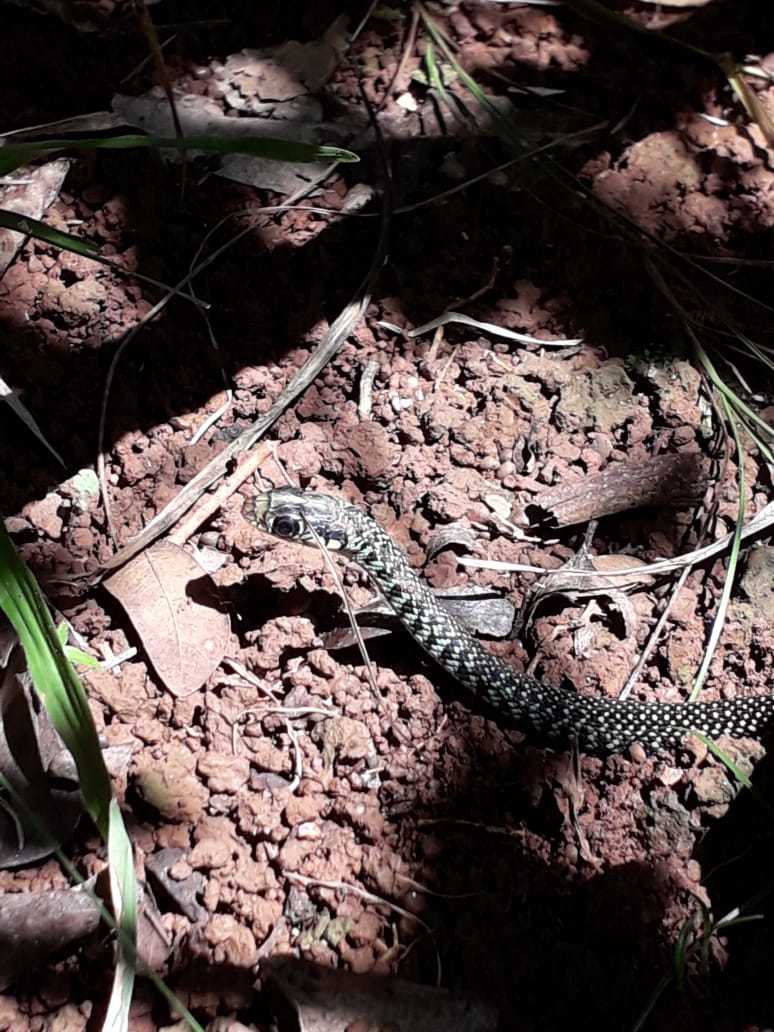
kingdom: Animalia
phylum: Chordata
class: Squamata
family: Colubridae
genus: Drymobius
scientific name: Drymobius margaritiferus
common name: Central american speckled racer
